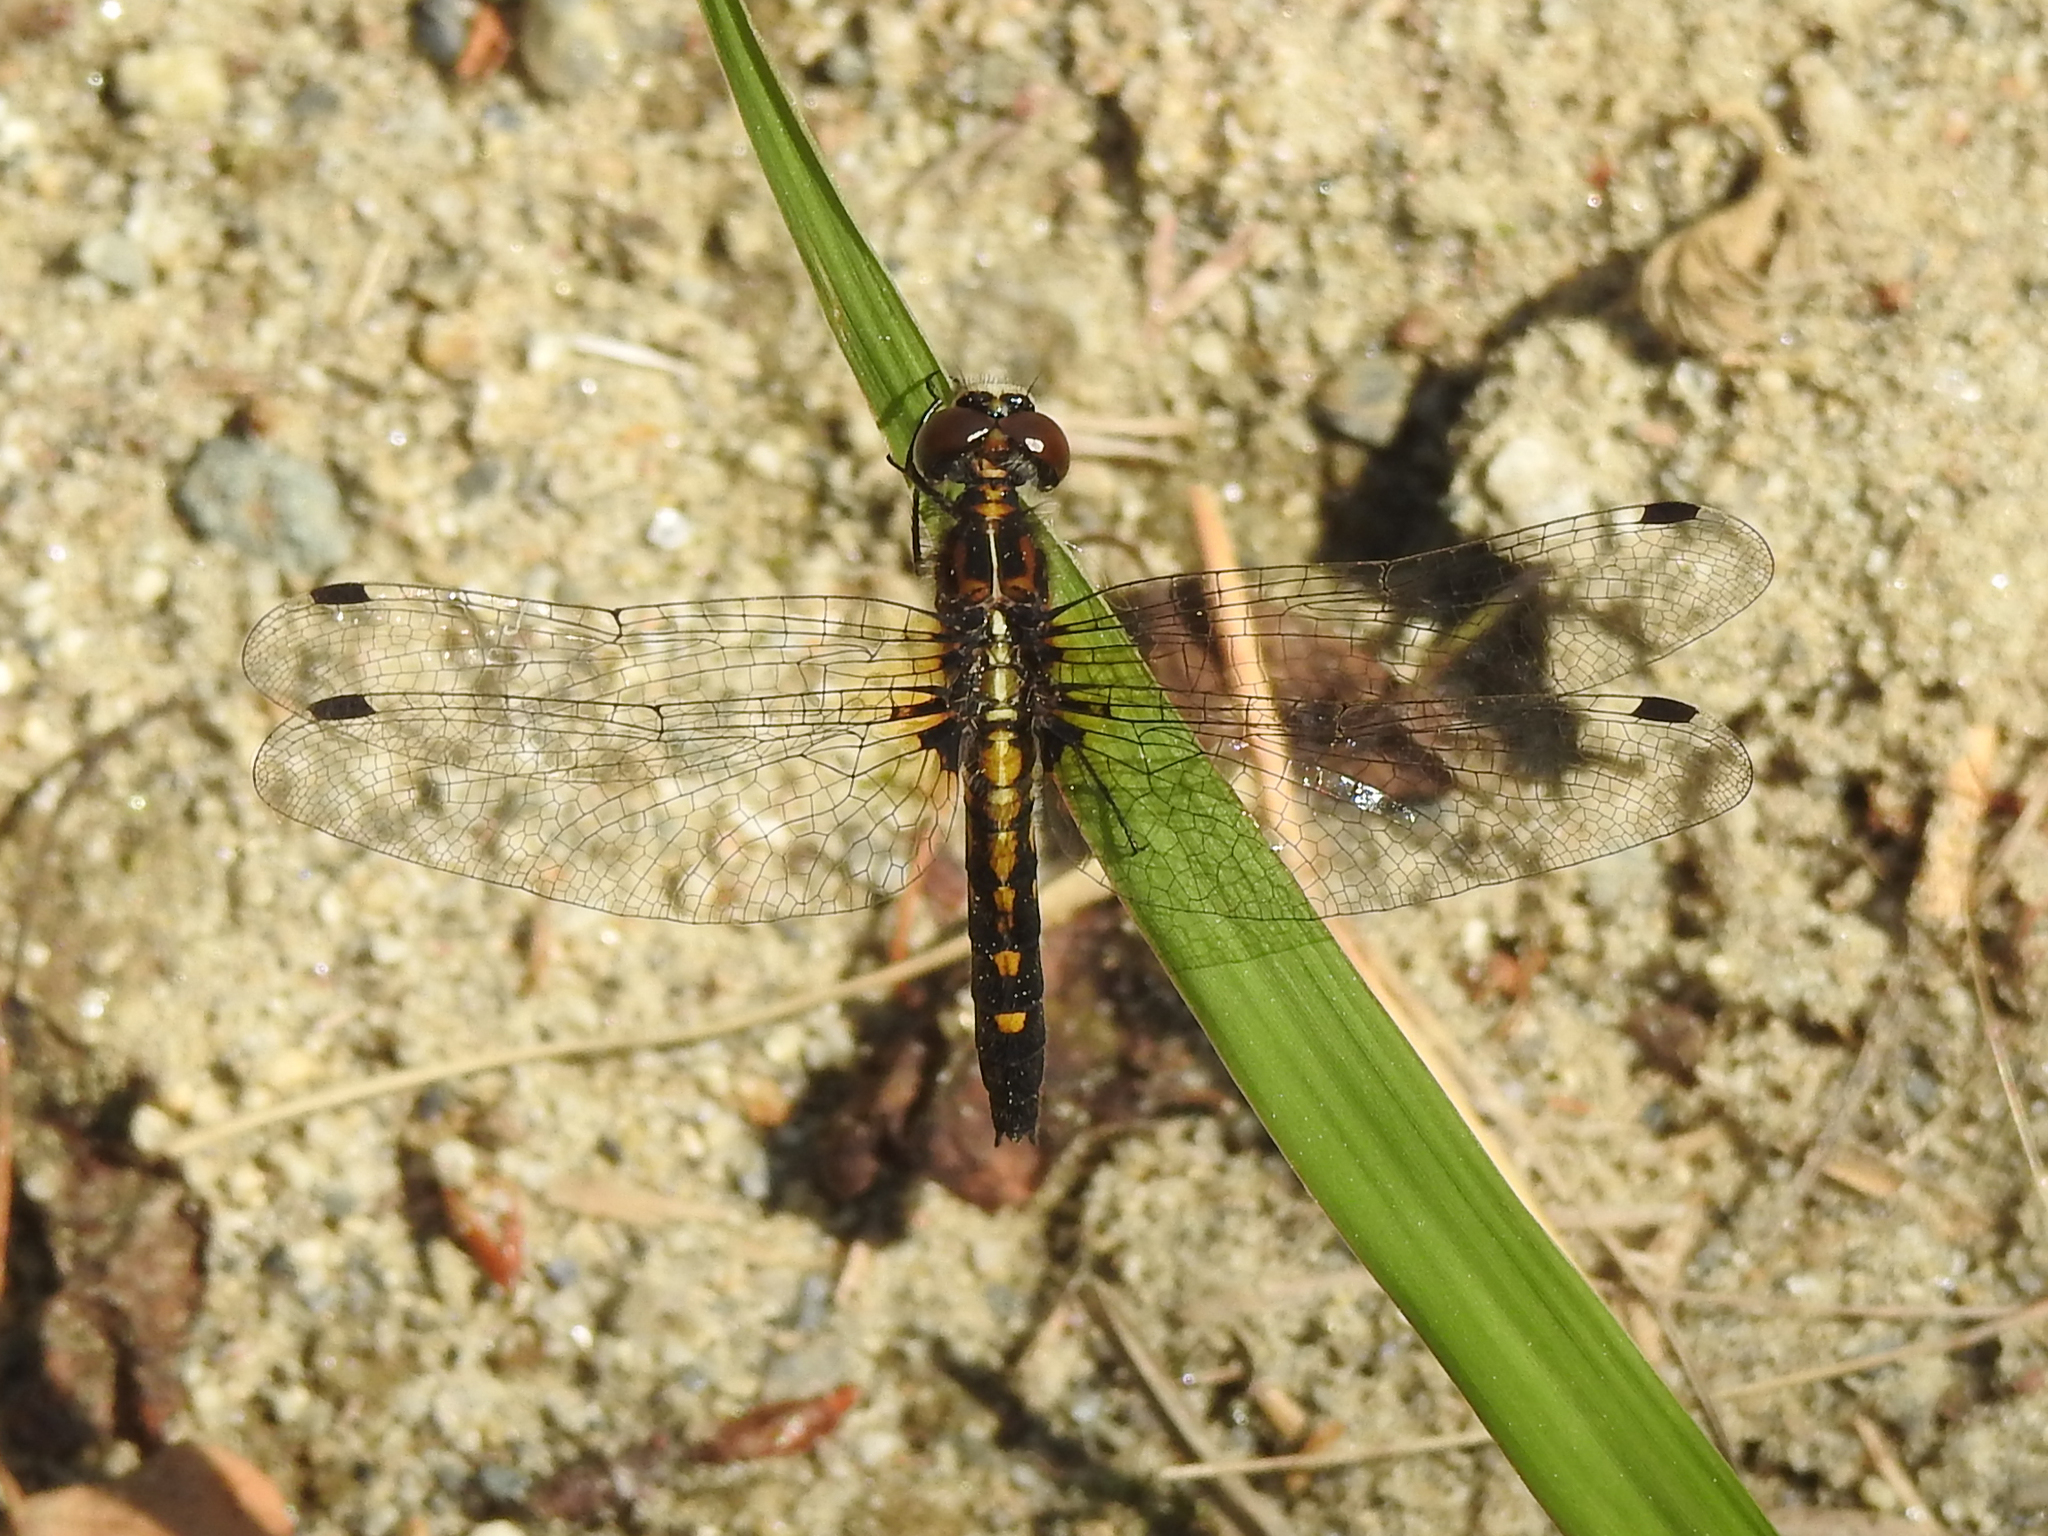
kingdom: Animalia
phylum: Arthropoda
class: Insecta
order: Odonata
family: Libellulidae
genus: Leucorrhinia
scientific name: Leucorrhinia intacta
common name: Dot-tailed whiteface
